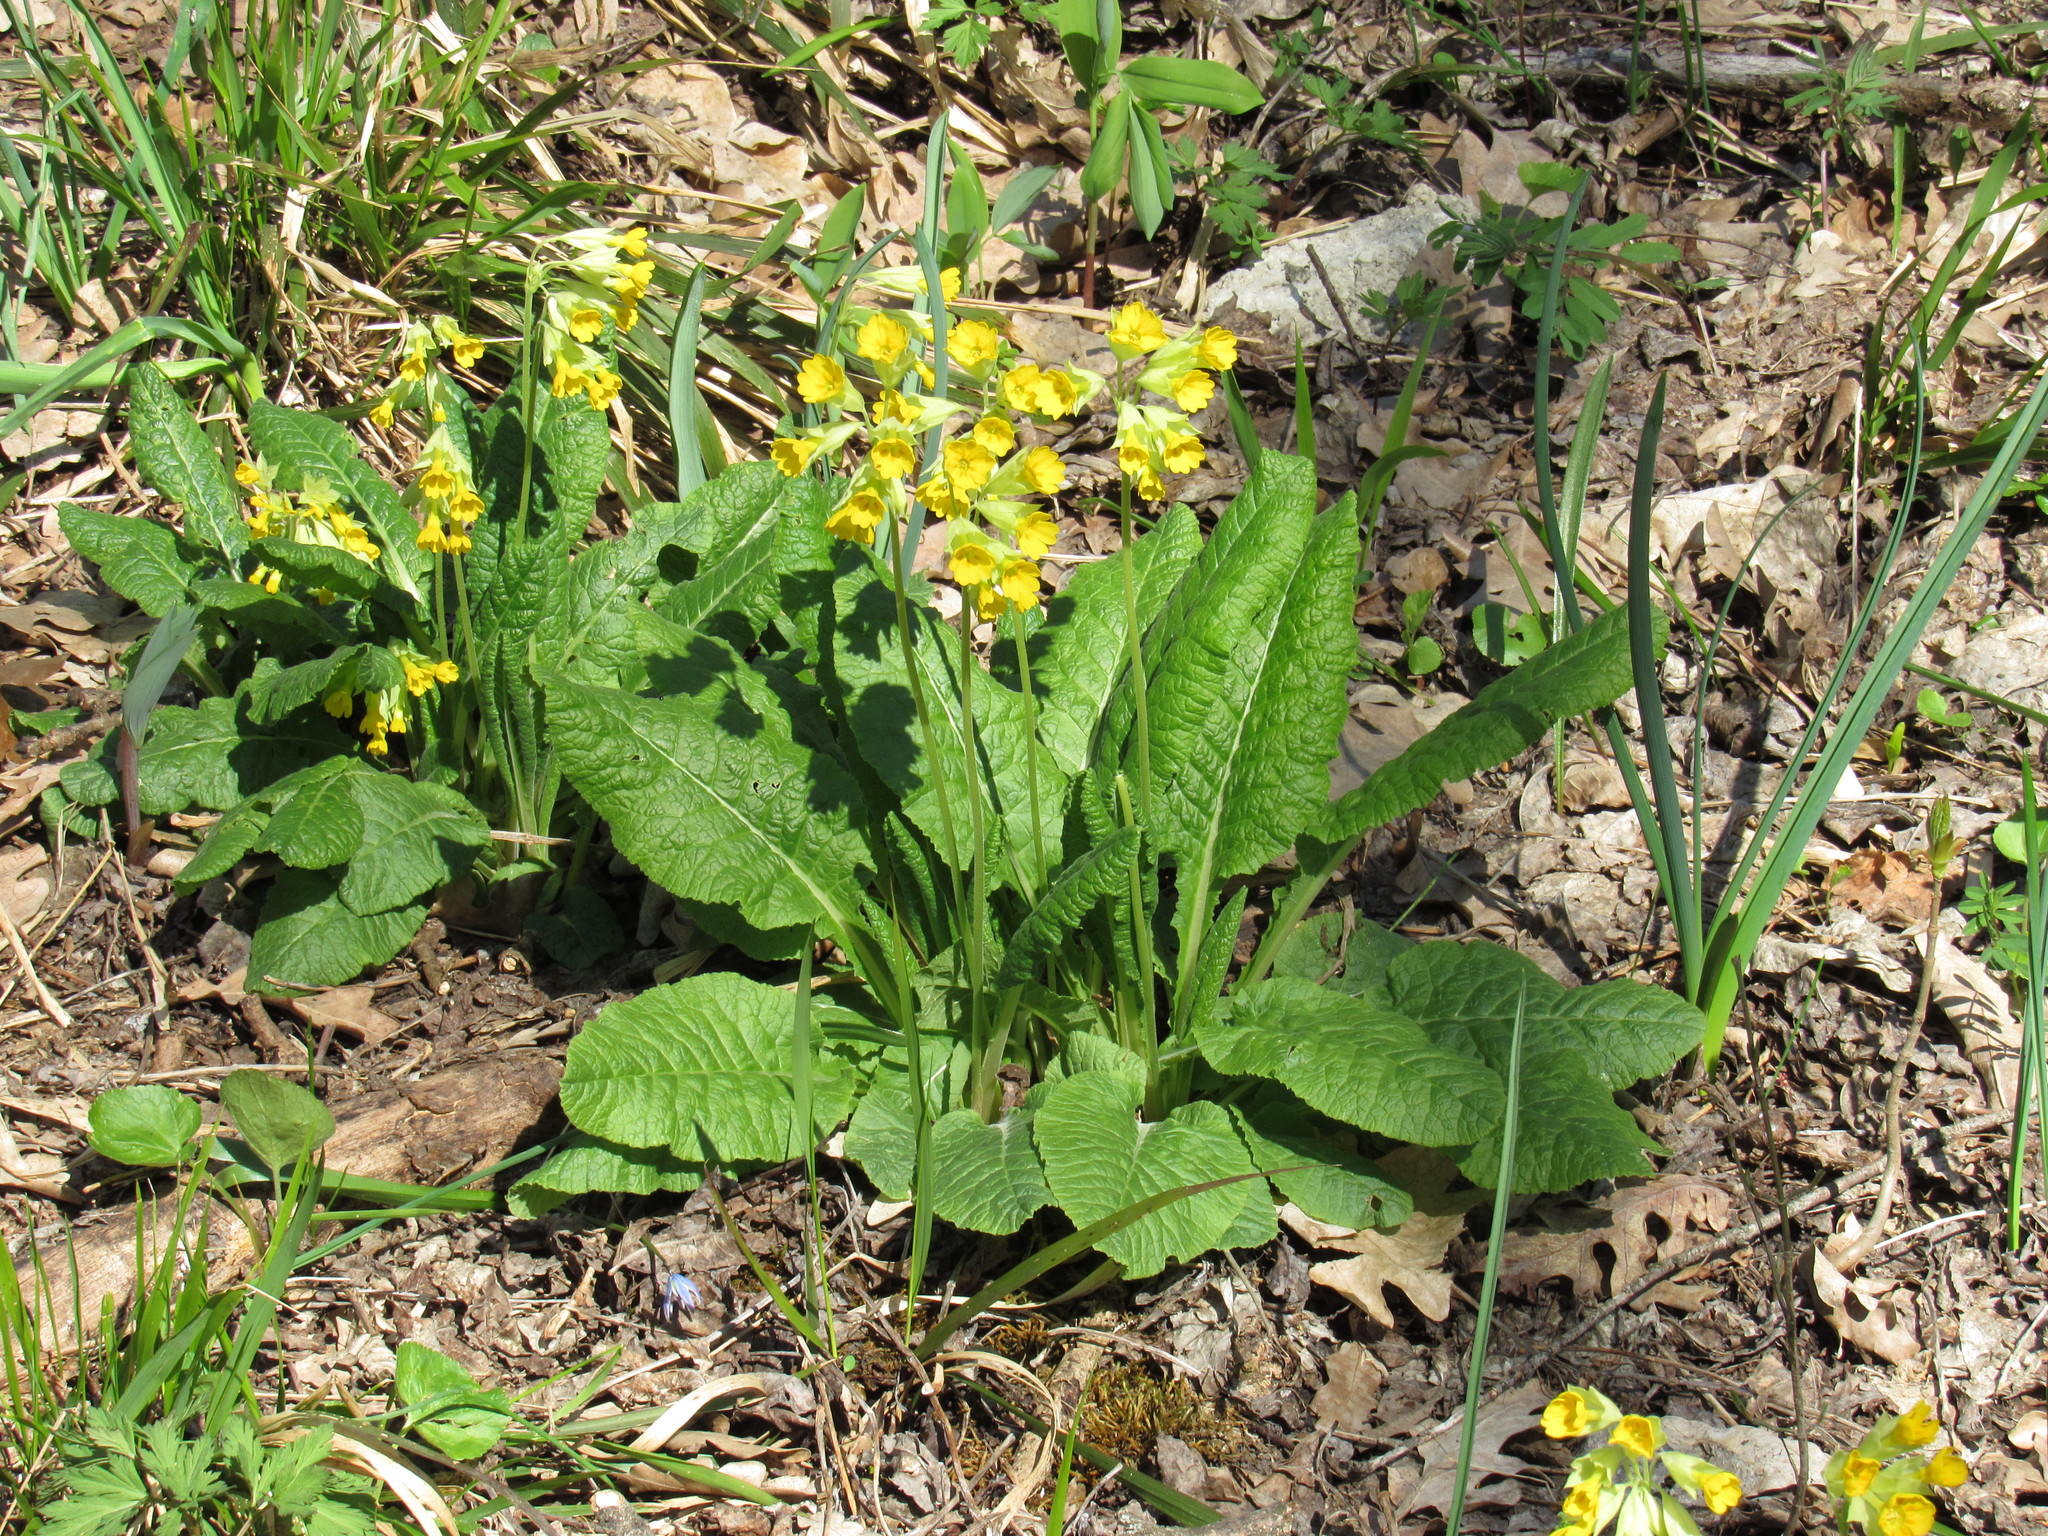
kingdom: Plantae
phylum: Tracheophyta
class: Magnoliopsida
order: Ericales
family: Primulaceae
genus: Primula
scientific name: Primula veris
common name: Cowslip
